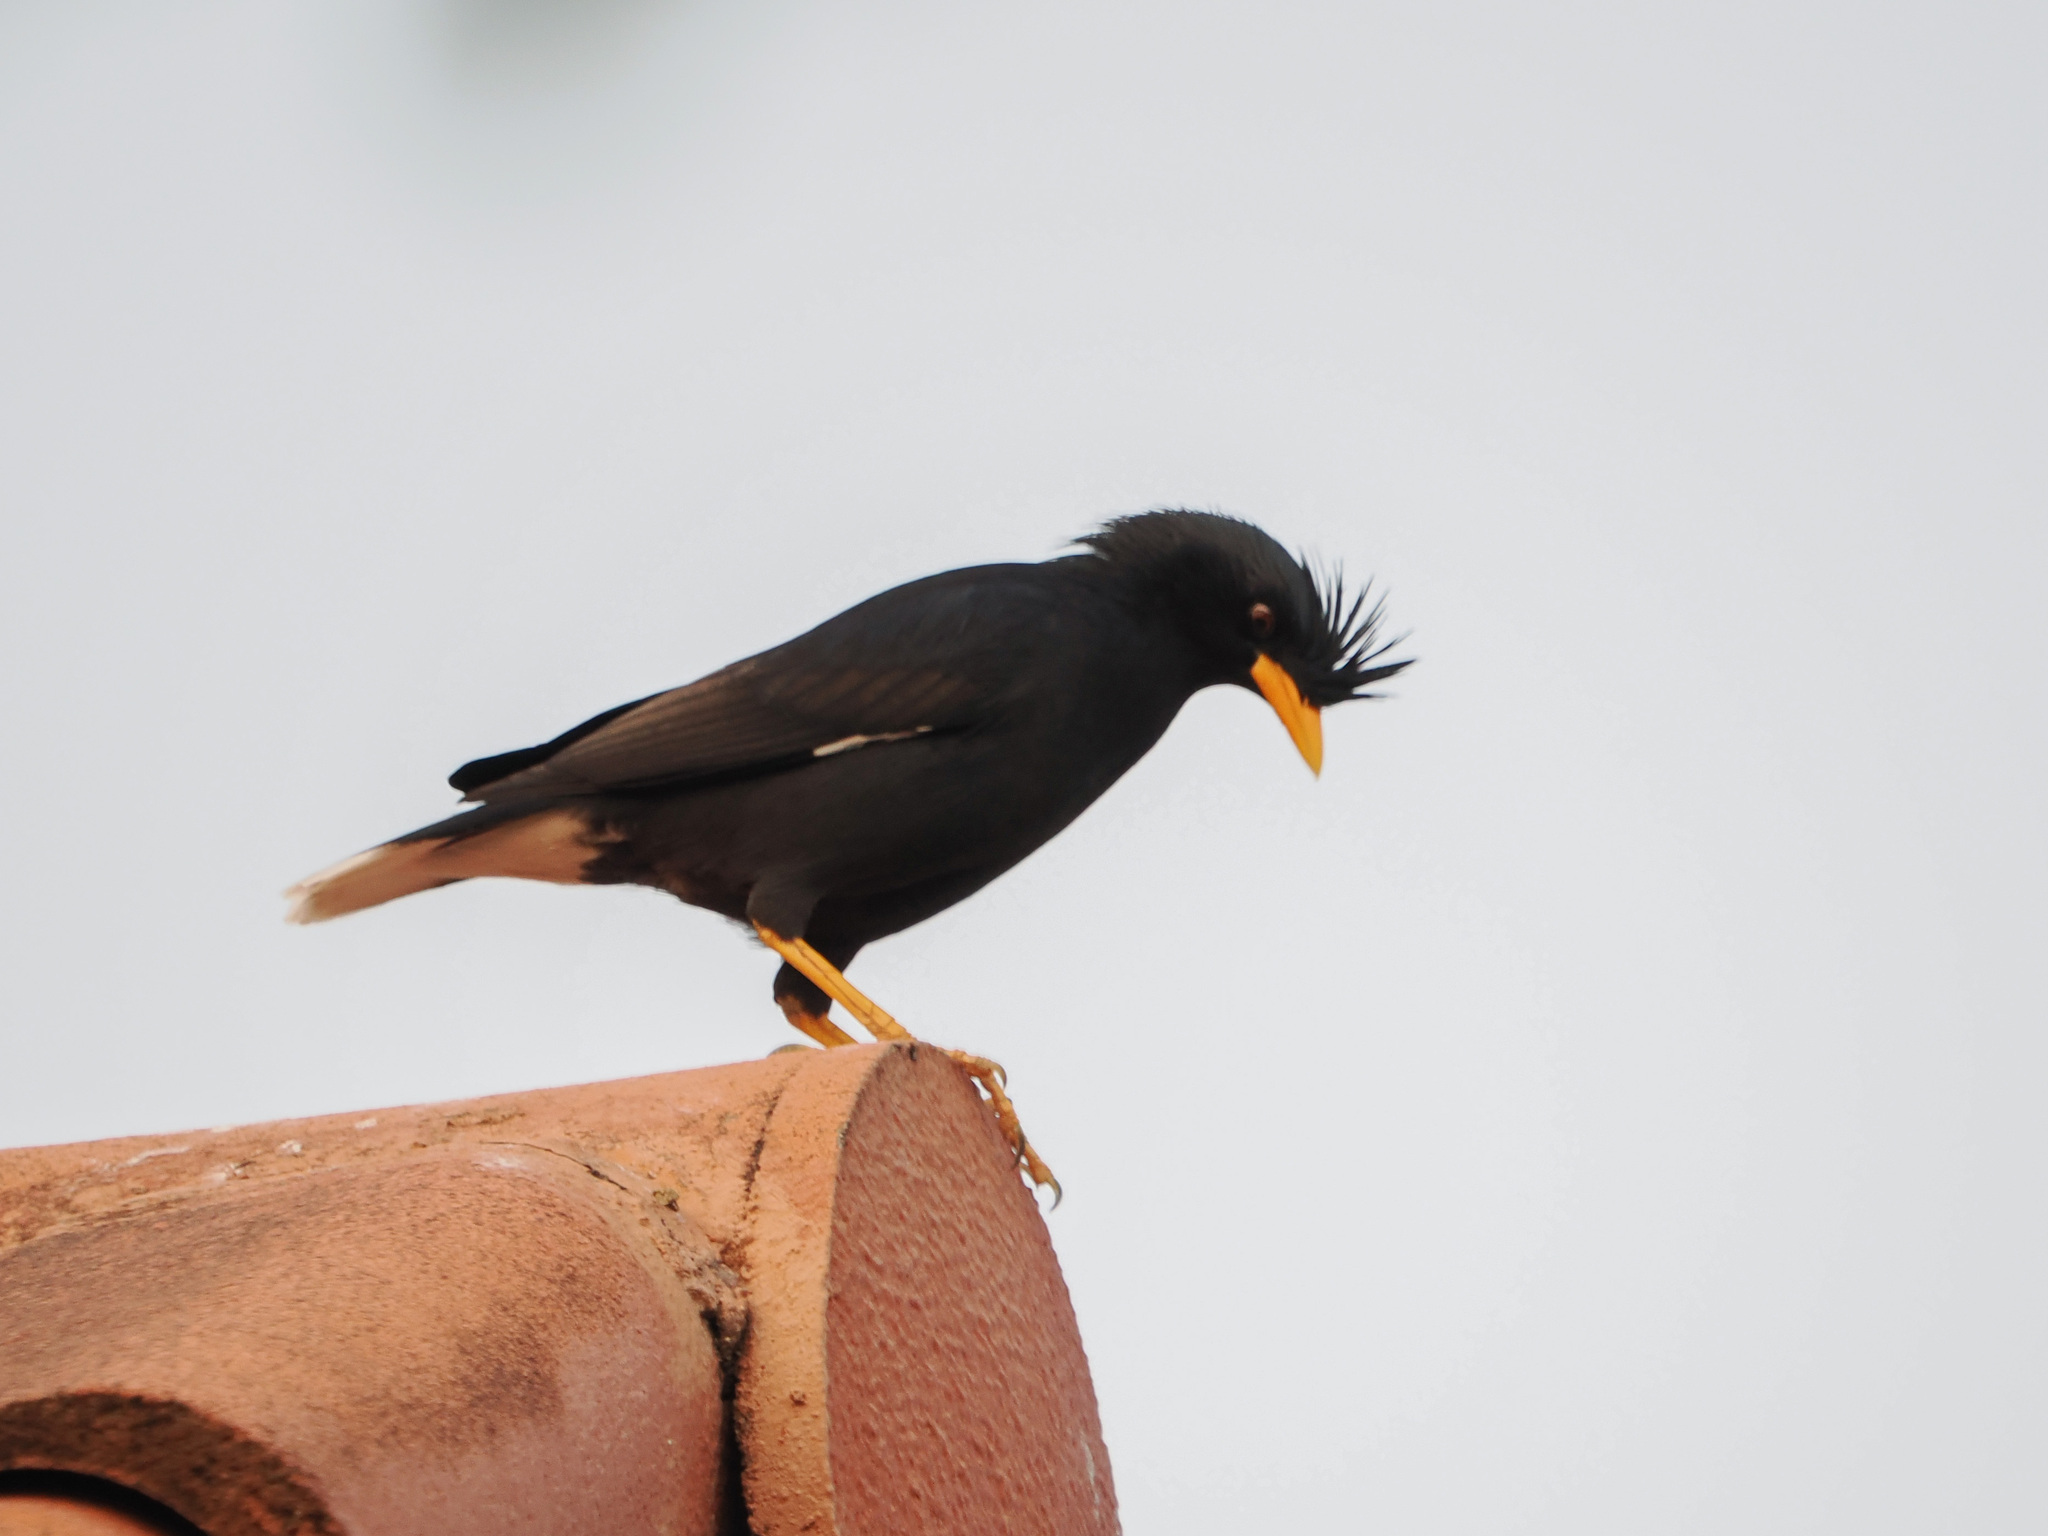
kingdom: Animalia
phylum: Chordata
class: Aves
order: Passeriformes
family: Sturnidae
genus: Acridotheres
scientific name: Acridotheres grandis
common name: Great myna
